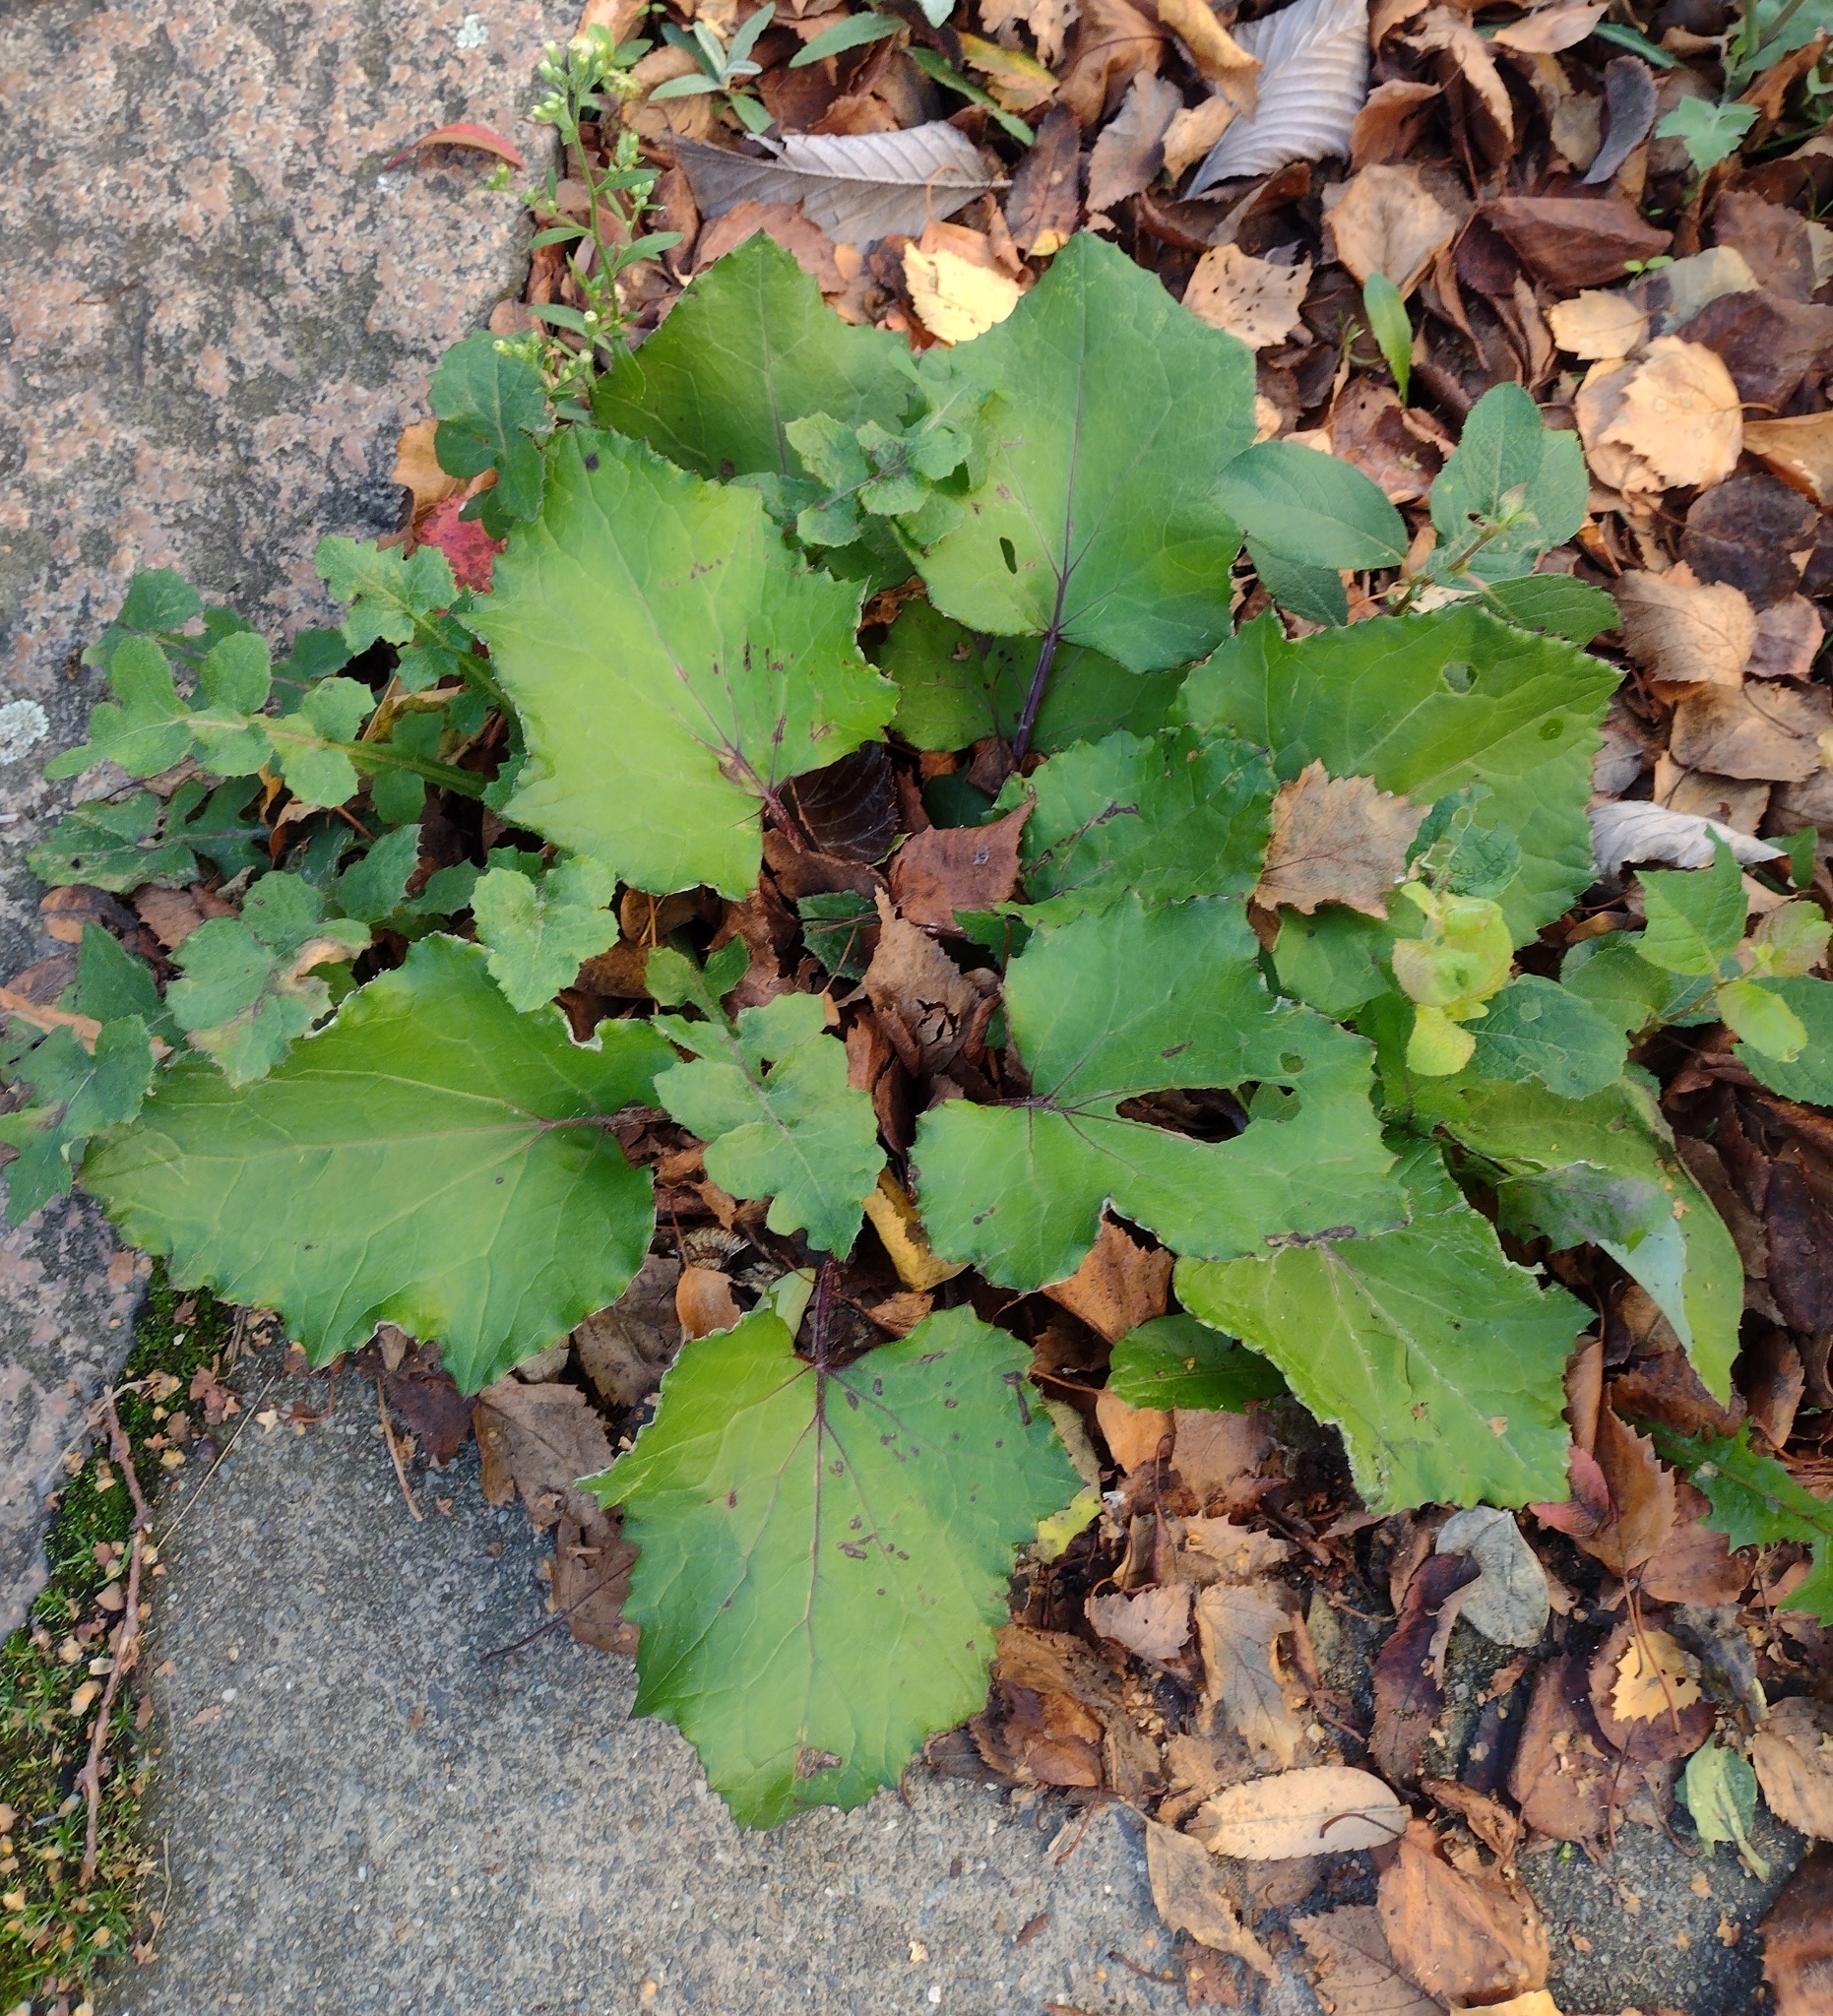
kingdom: Plantae
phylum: Tracheophyta
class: Magnoliopsida
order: Asterales
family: Asteraceae
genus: Tussilago
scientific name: Tussilago farfara
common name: Coltsfoot
